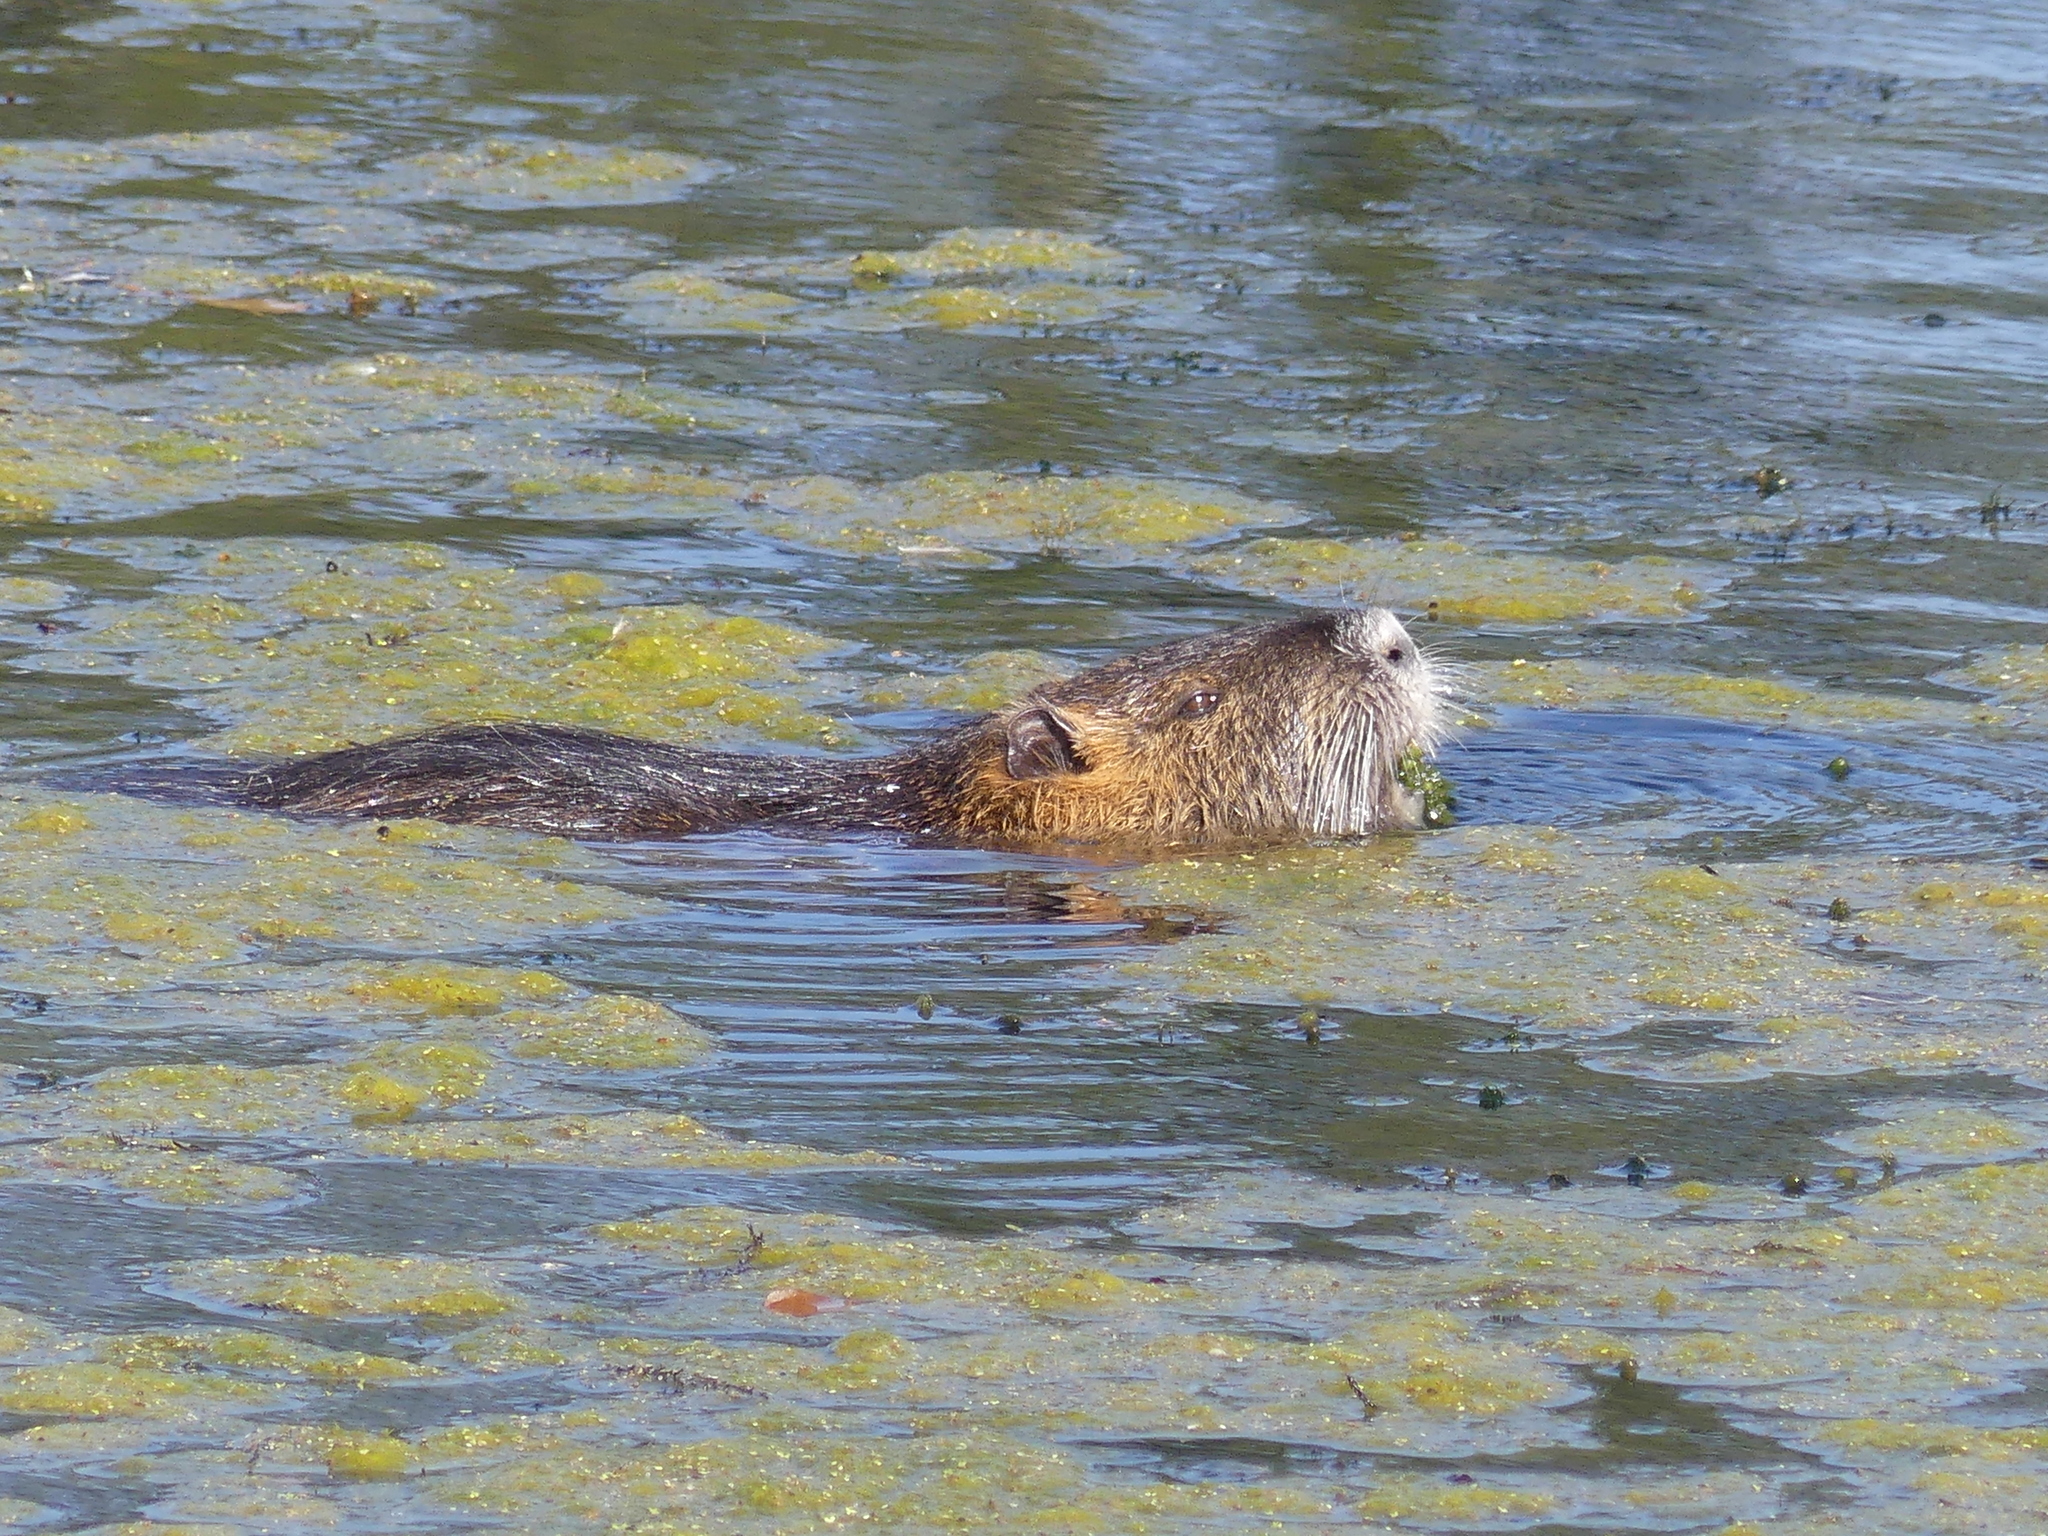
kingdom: Animalia
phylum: Chordata
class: Mammalia
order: Rodentia
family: Myocastoridae
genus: Myocastor
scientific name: Myocastor coypus
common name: Coypu
